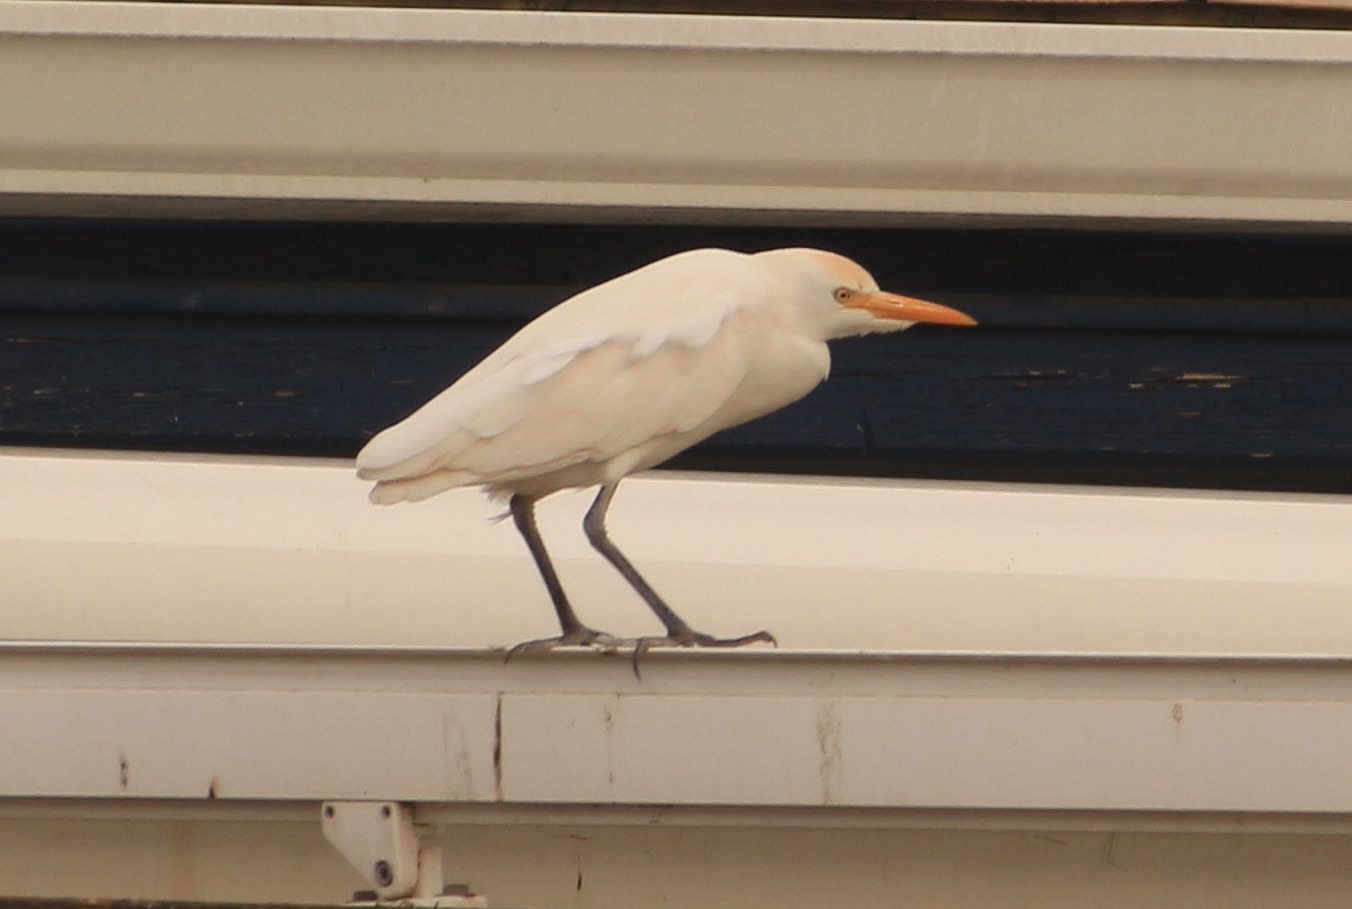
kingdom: Animalia
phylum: Chordata
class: Aves
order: Pelecaniformes
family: Ardeidae
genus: Bubulcus
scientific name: Bubulcus ibis
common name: Cattle egret
